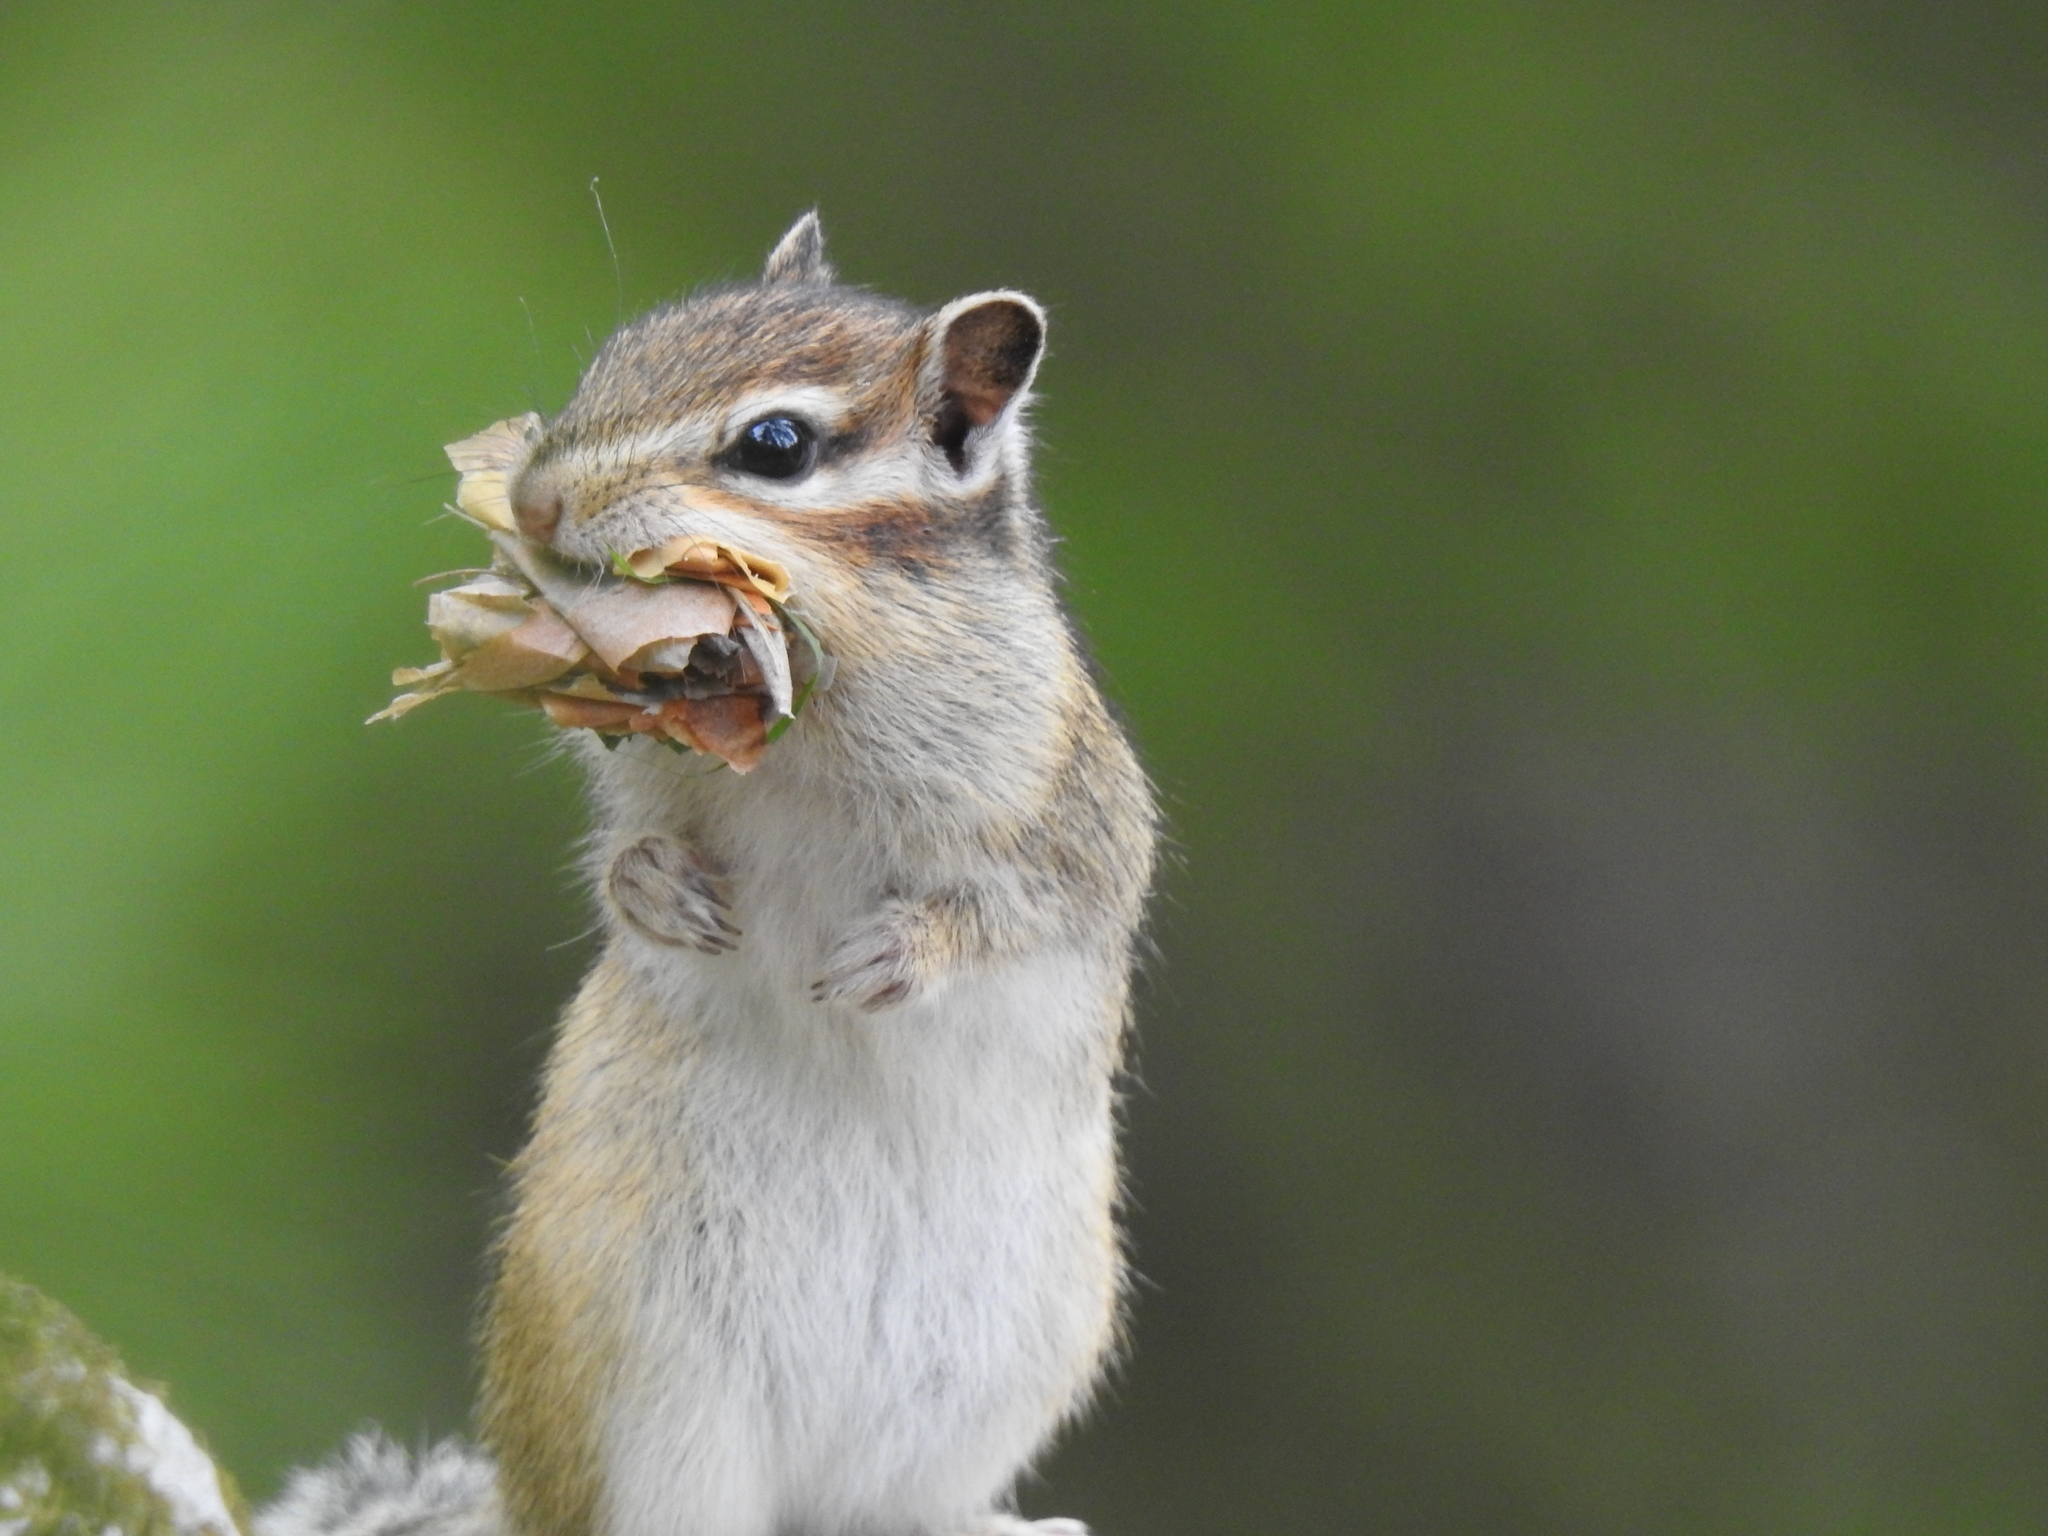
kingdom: Animalia
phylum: Chordata
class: Mammalia
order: Rodentia
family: Sciuridae
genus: Tamias
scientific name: Tamias sibiricus
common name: Siberian chipmunk
